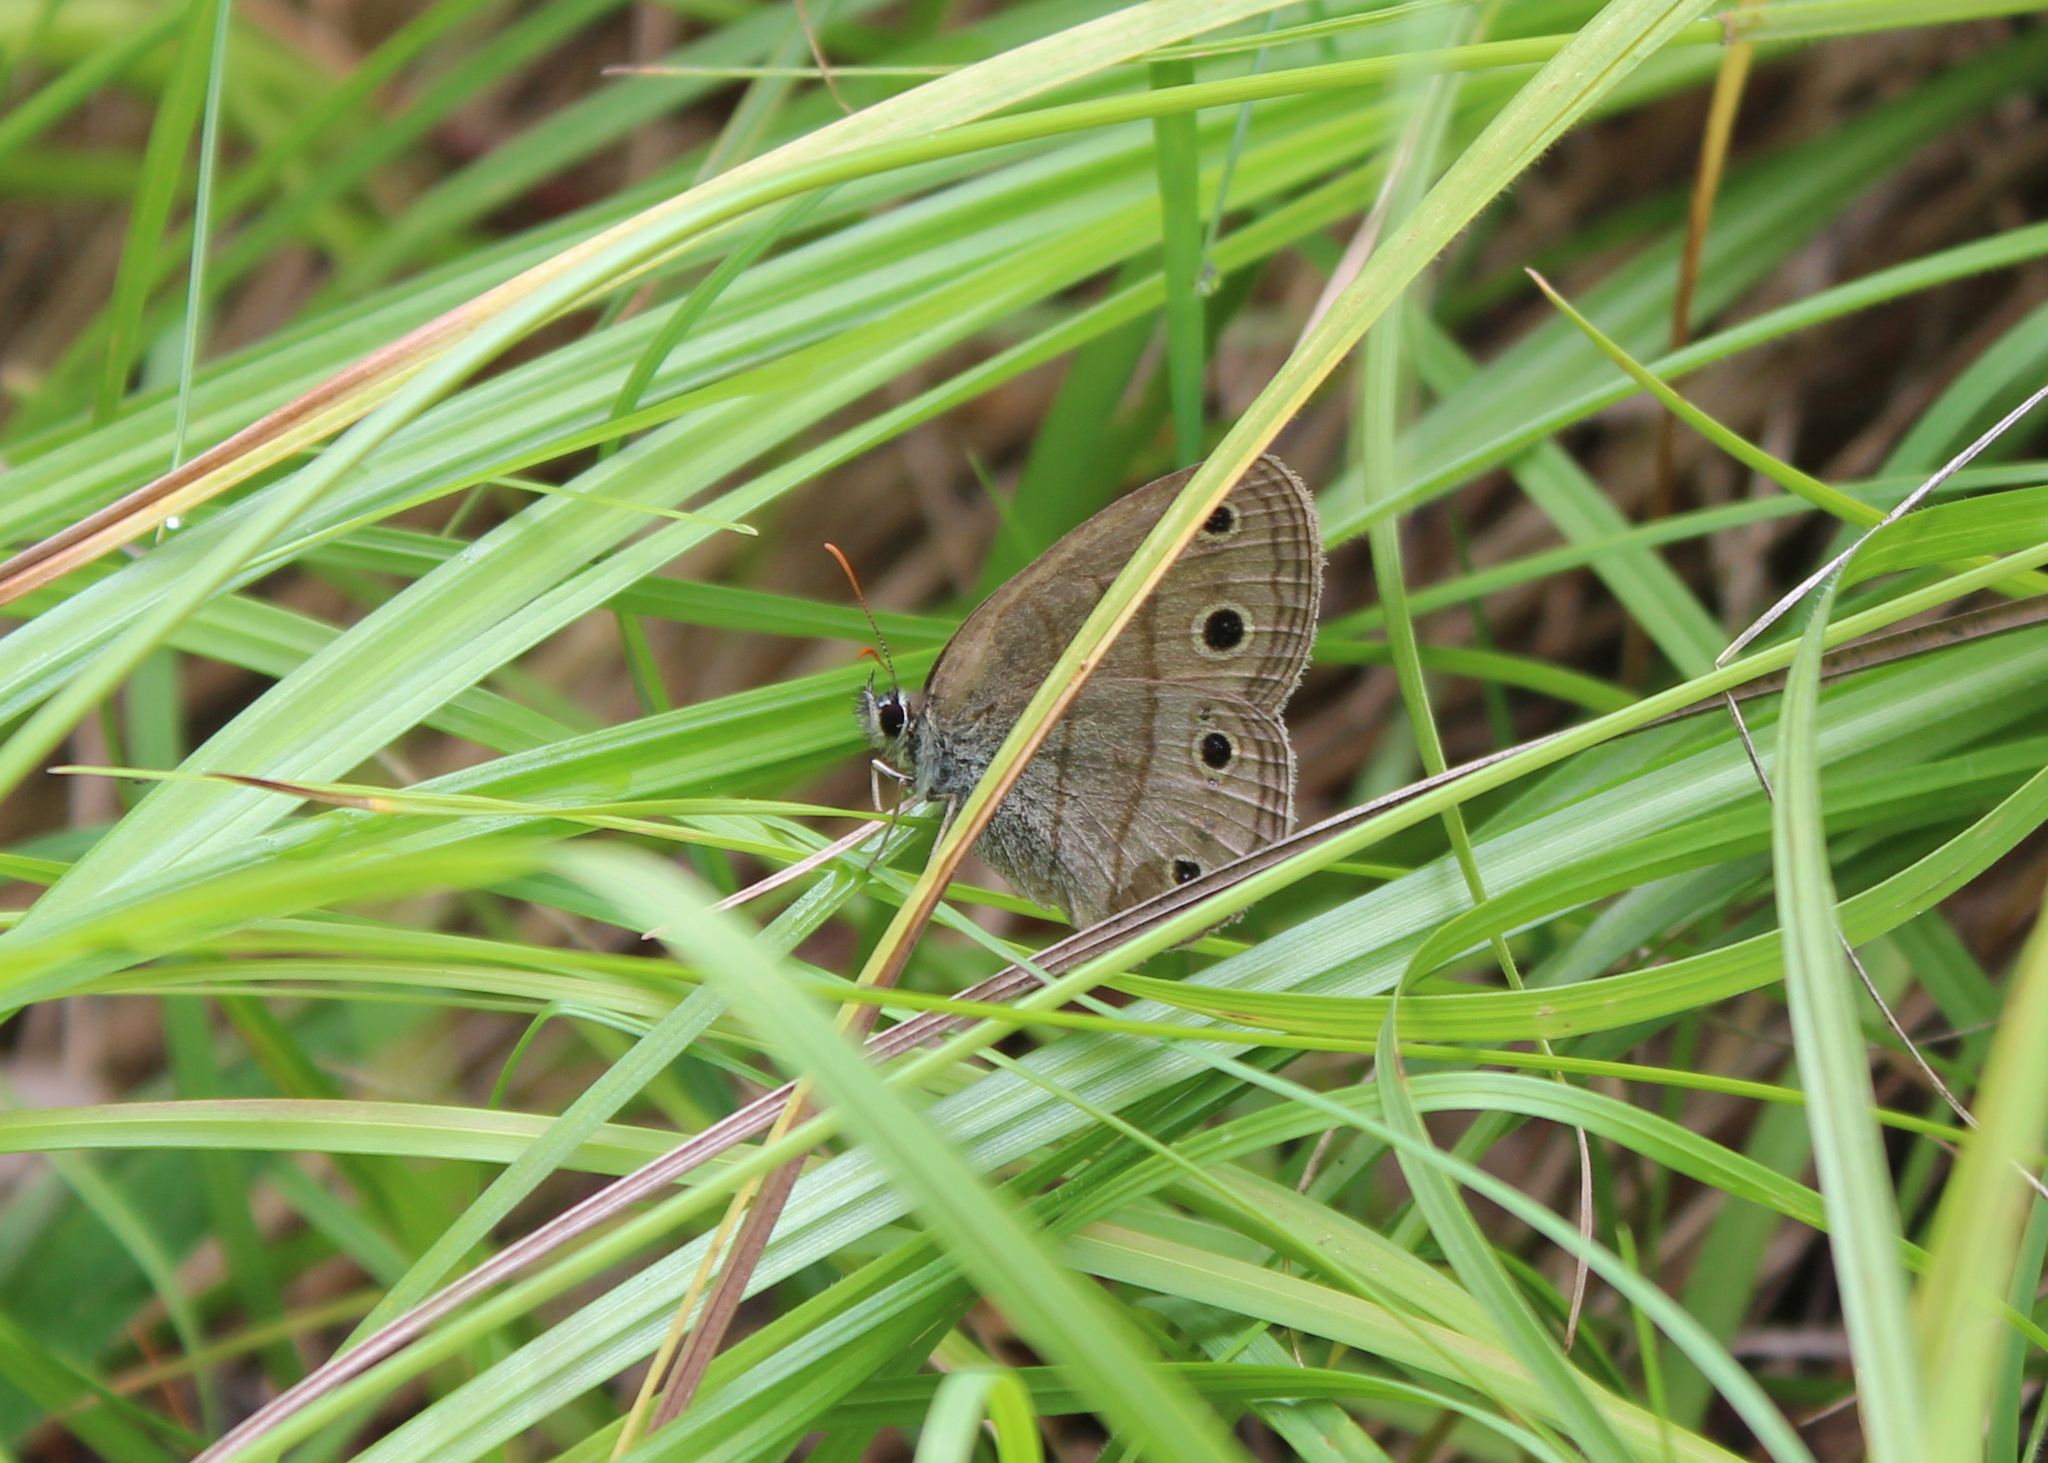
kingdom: Animalia
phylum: Arthropoda
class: Insecta
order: Lepidoptera
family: Nymphalidae
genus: Euptychia
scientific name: Euptychia cymela
